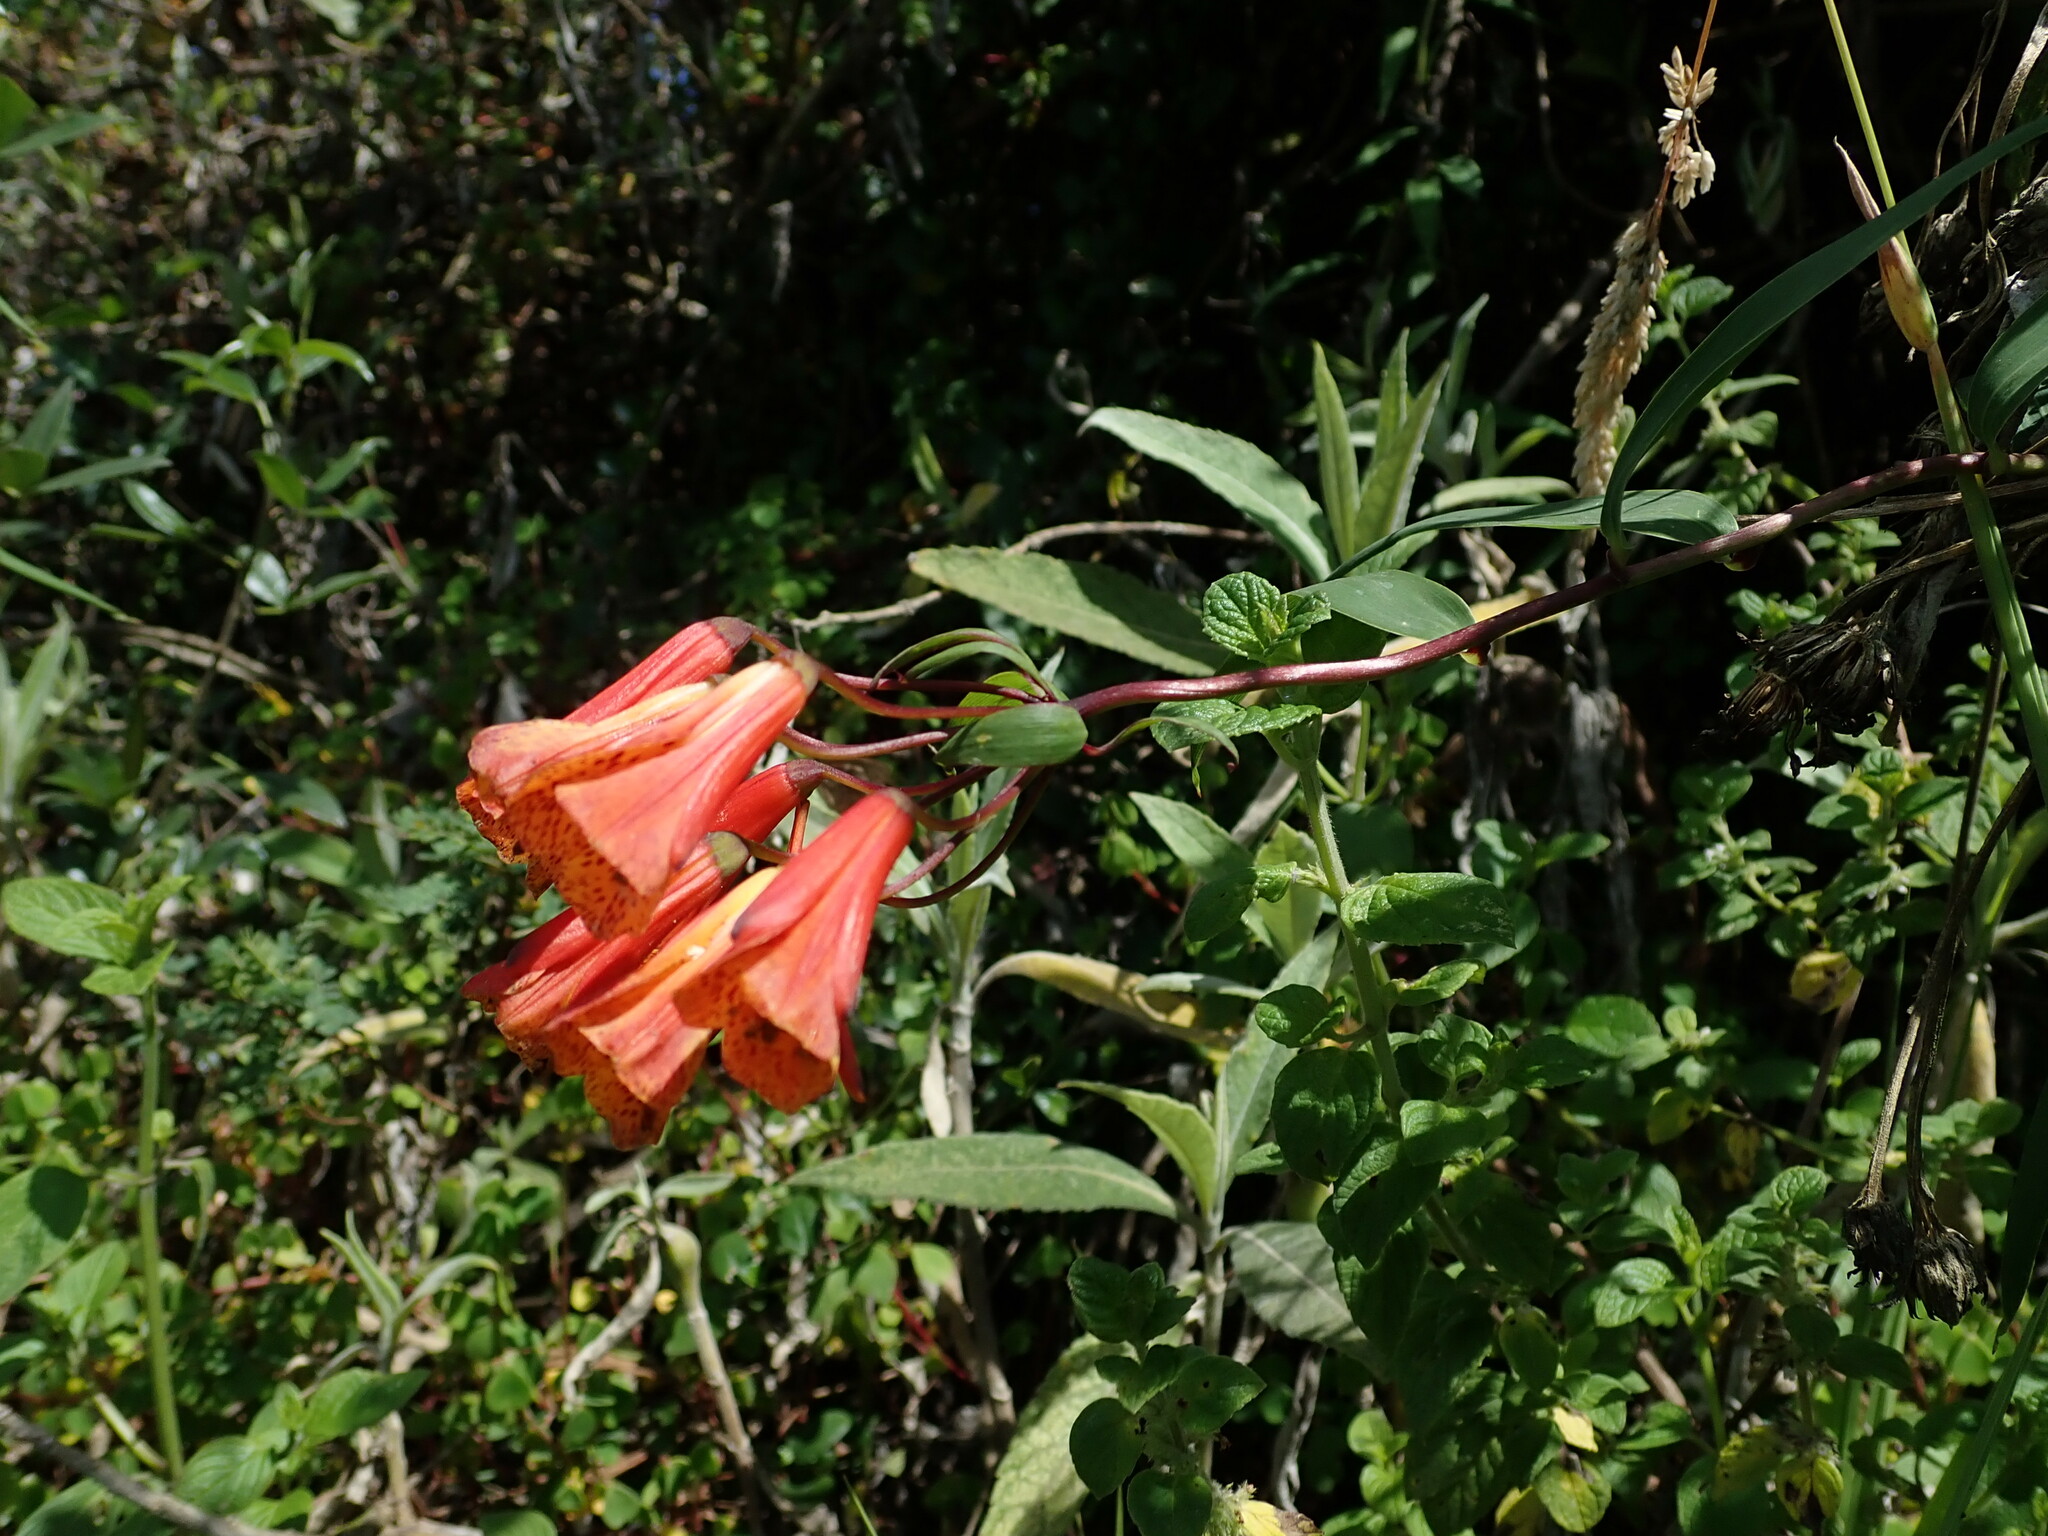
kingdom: Plantae
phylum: Tracheophyta
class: Liliopsida
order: Liliales
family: Alstroemeriaceae
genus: Bomarea
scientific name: Bomarea multiflora
